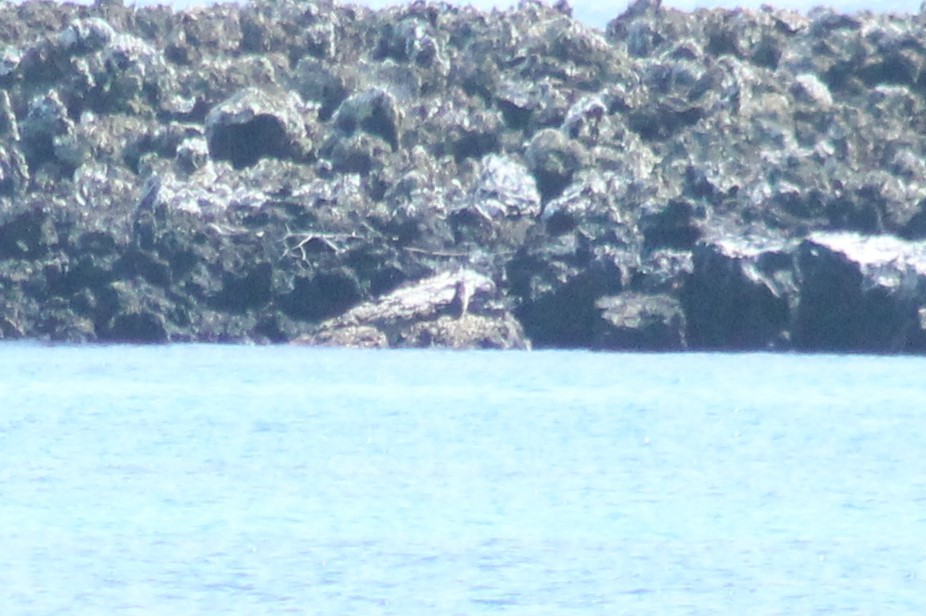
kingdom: Animalia
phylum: Chordata
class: Aves
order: Sphenisciformes
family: Spheniscidae
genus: Spheniscus
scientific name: Spheniscus mendiculus
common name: Galapagos penguin
